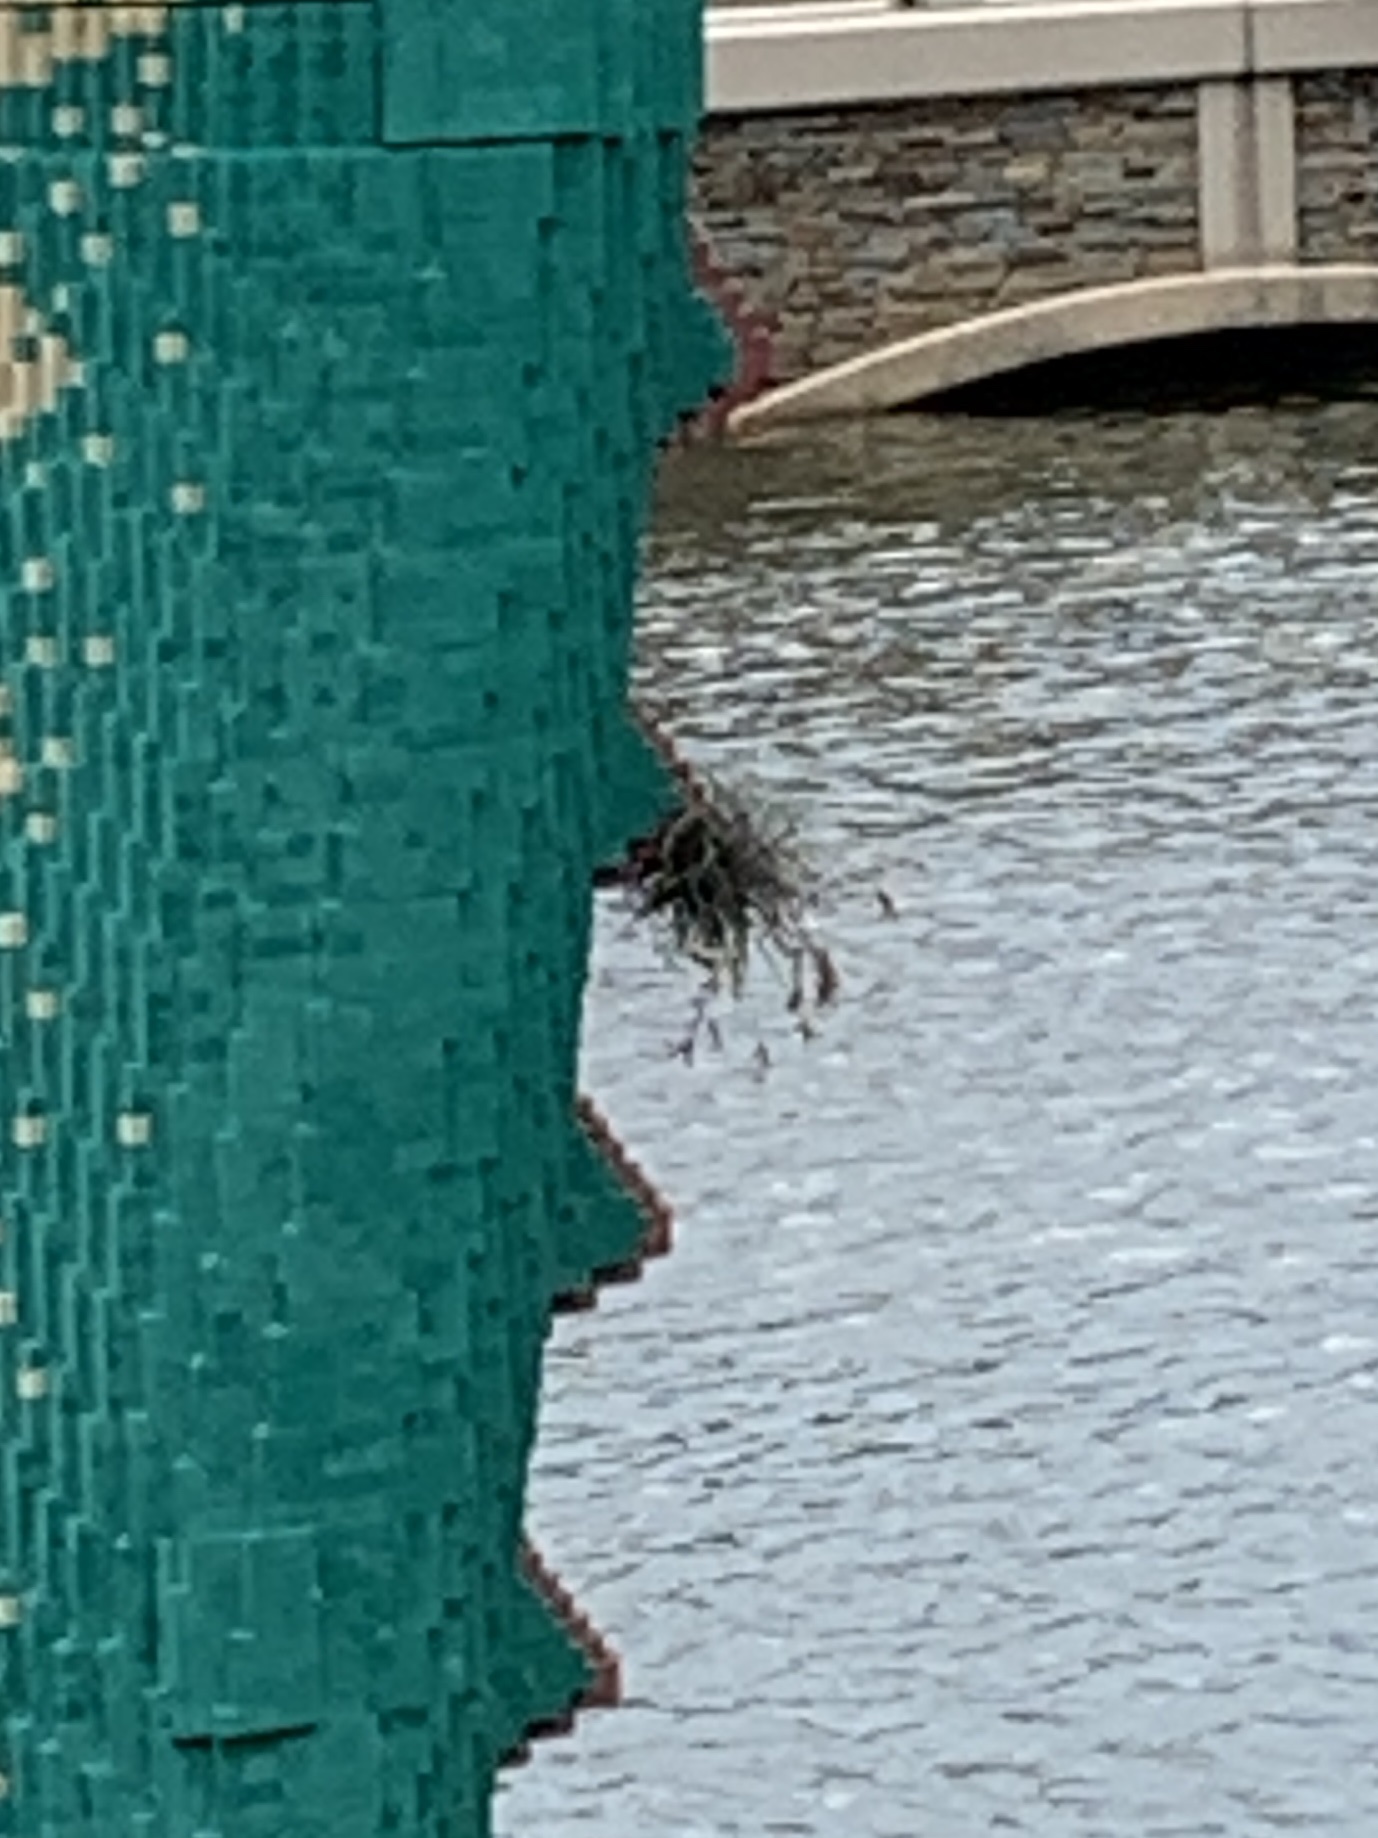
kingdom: Plantae
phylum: Tracheophyta
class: Liliopsida
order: Poales
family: Bromeliaceae
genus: Tillandsia
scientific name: Tillandsia recurvata
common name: Small ballmoss
